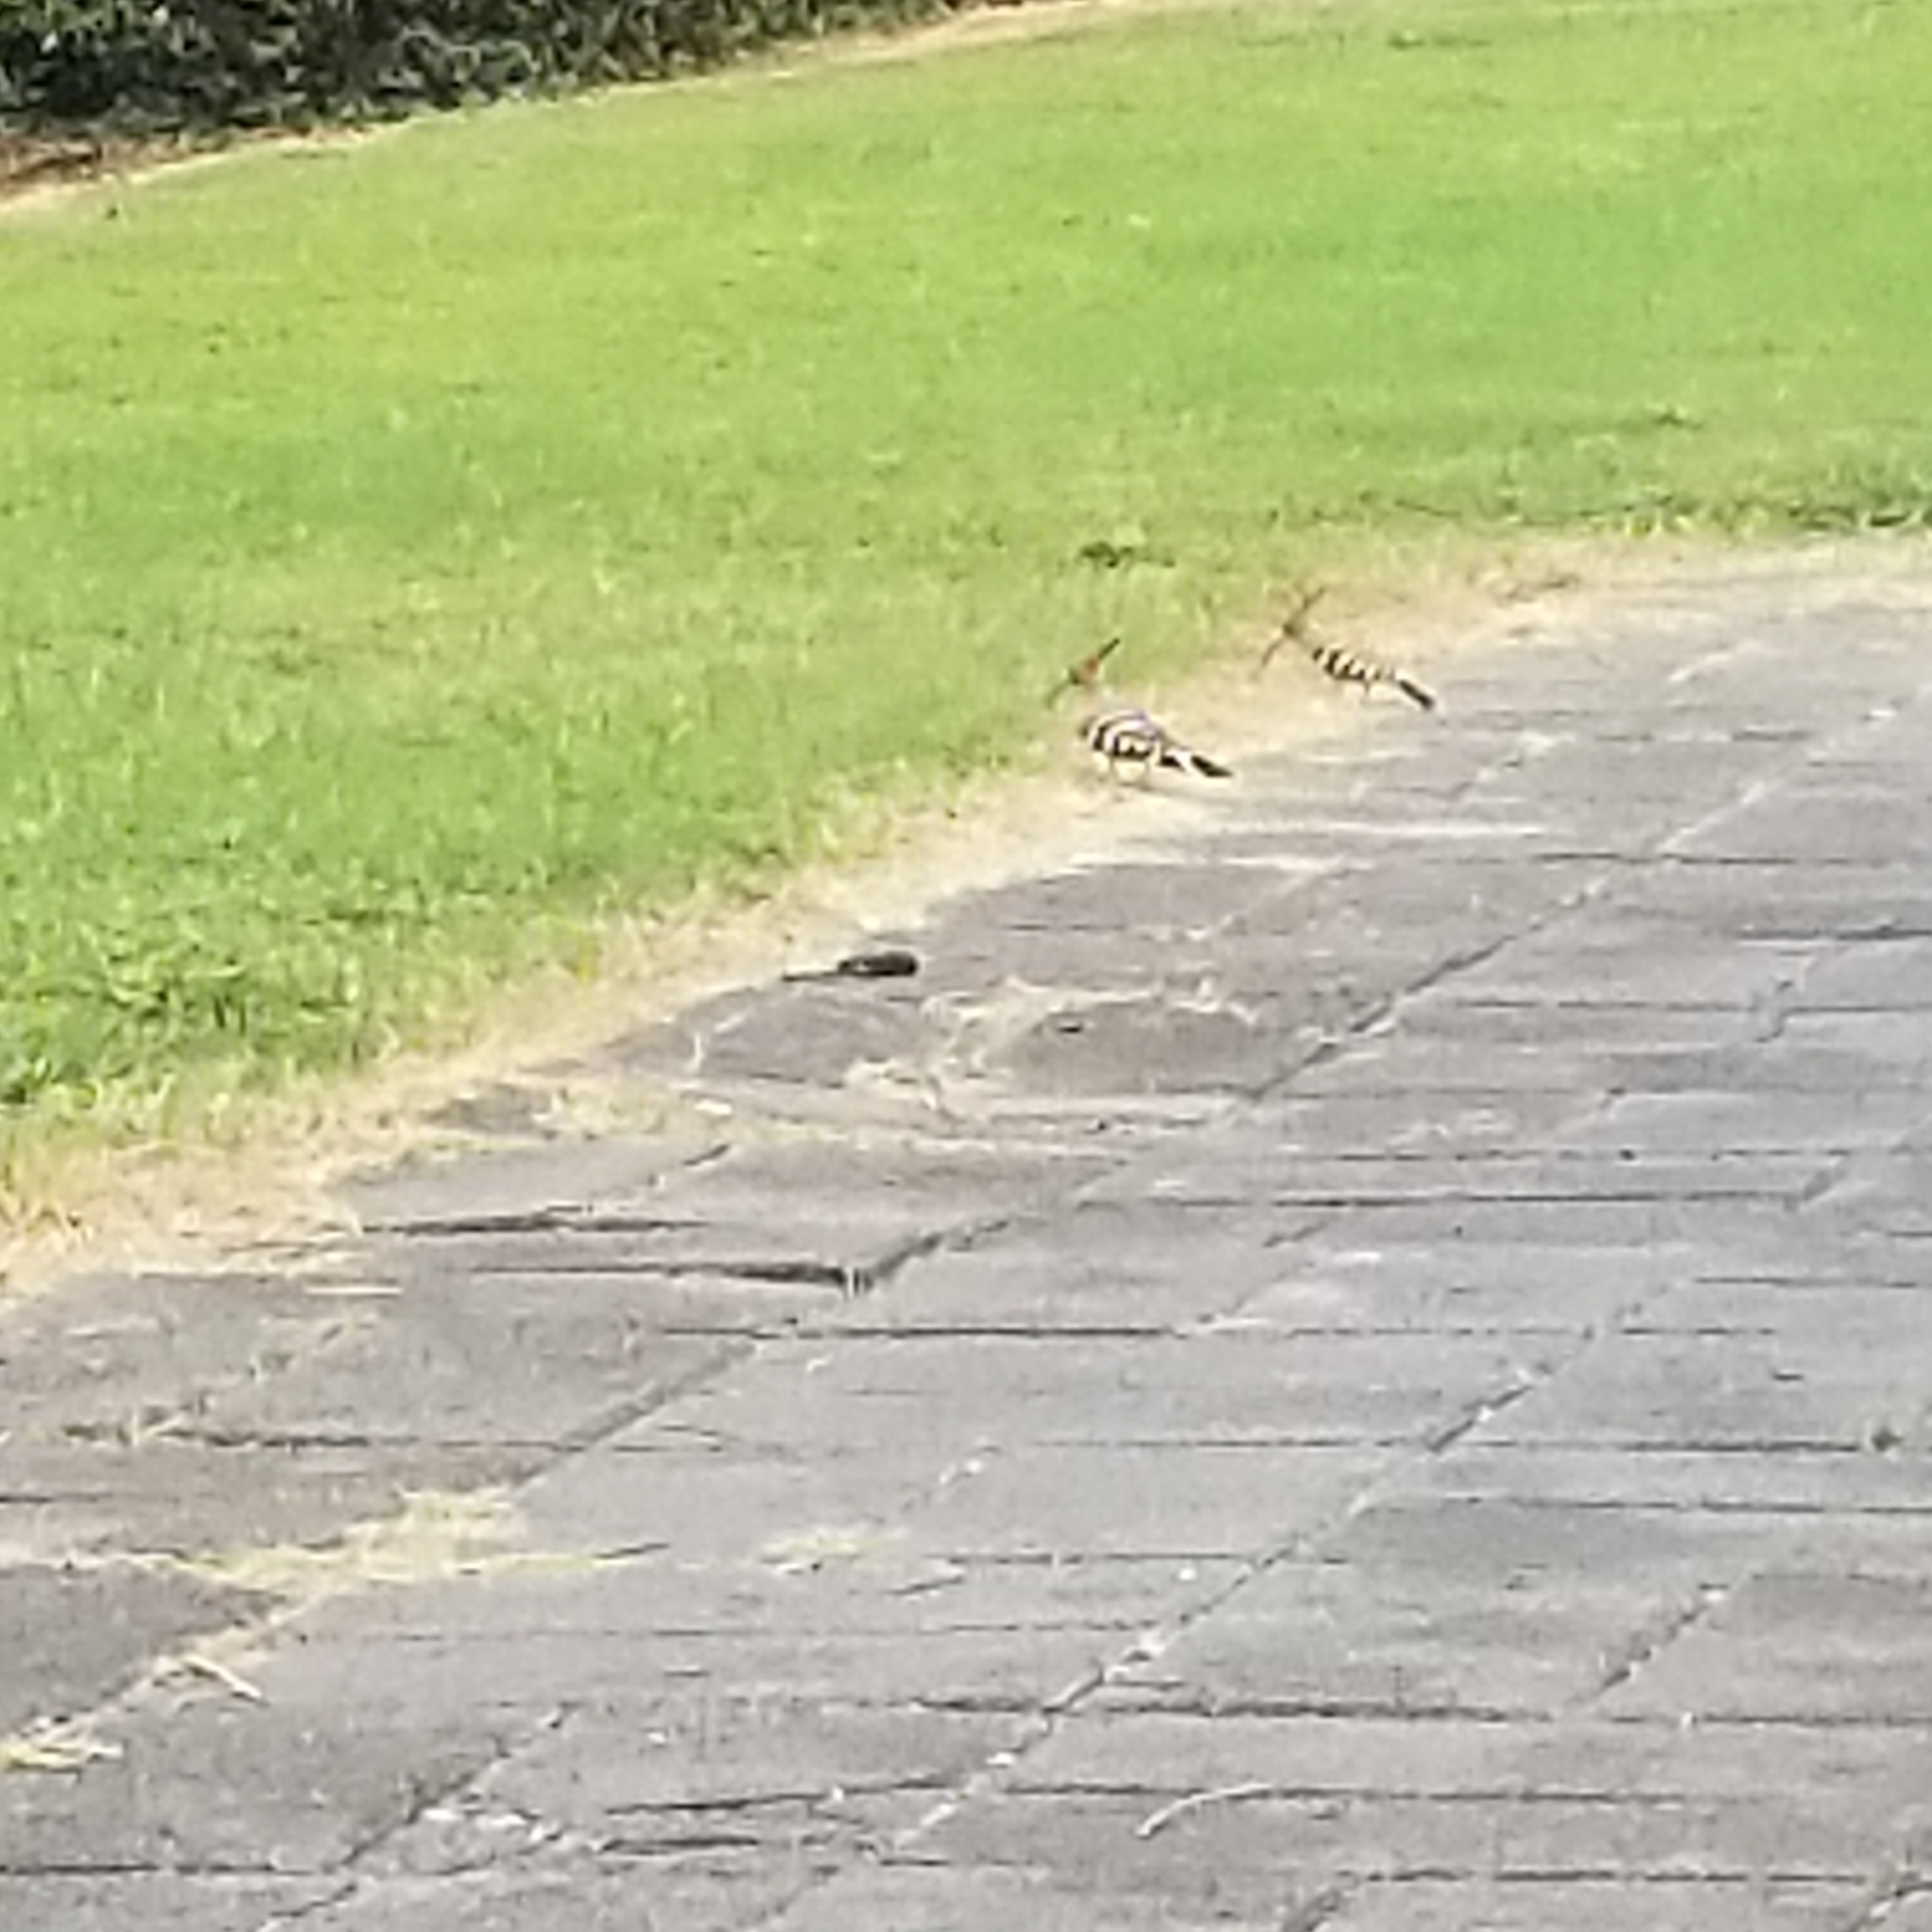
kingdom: Animalia
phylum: Chordata
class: Aves
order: Bucerotiformes
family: Upupidae
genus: Upupa
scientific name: Upupa epops
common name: Eurasian hoopoe
